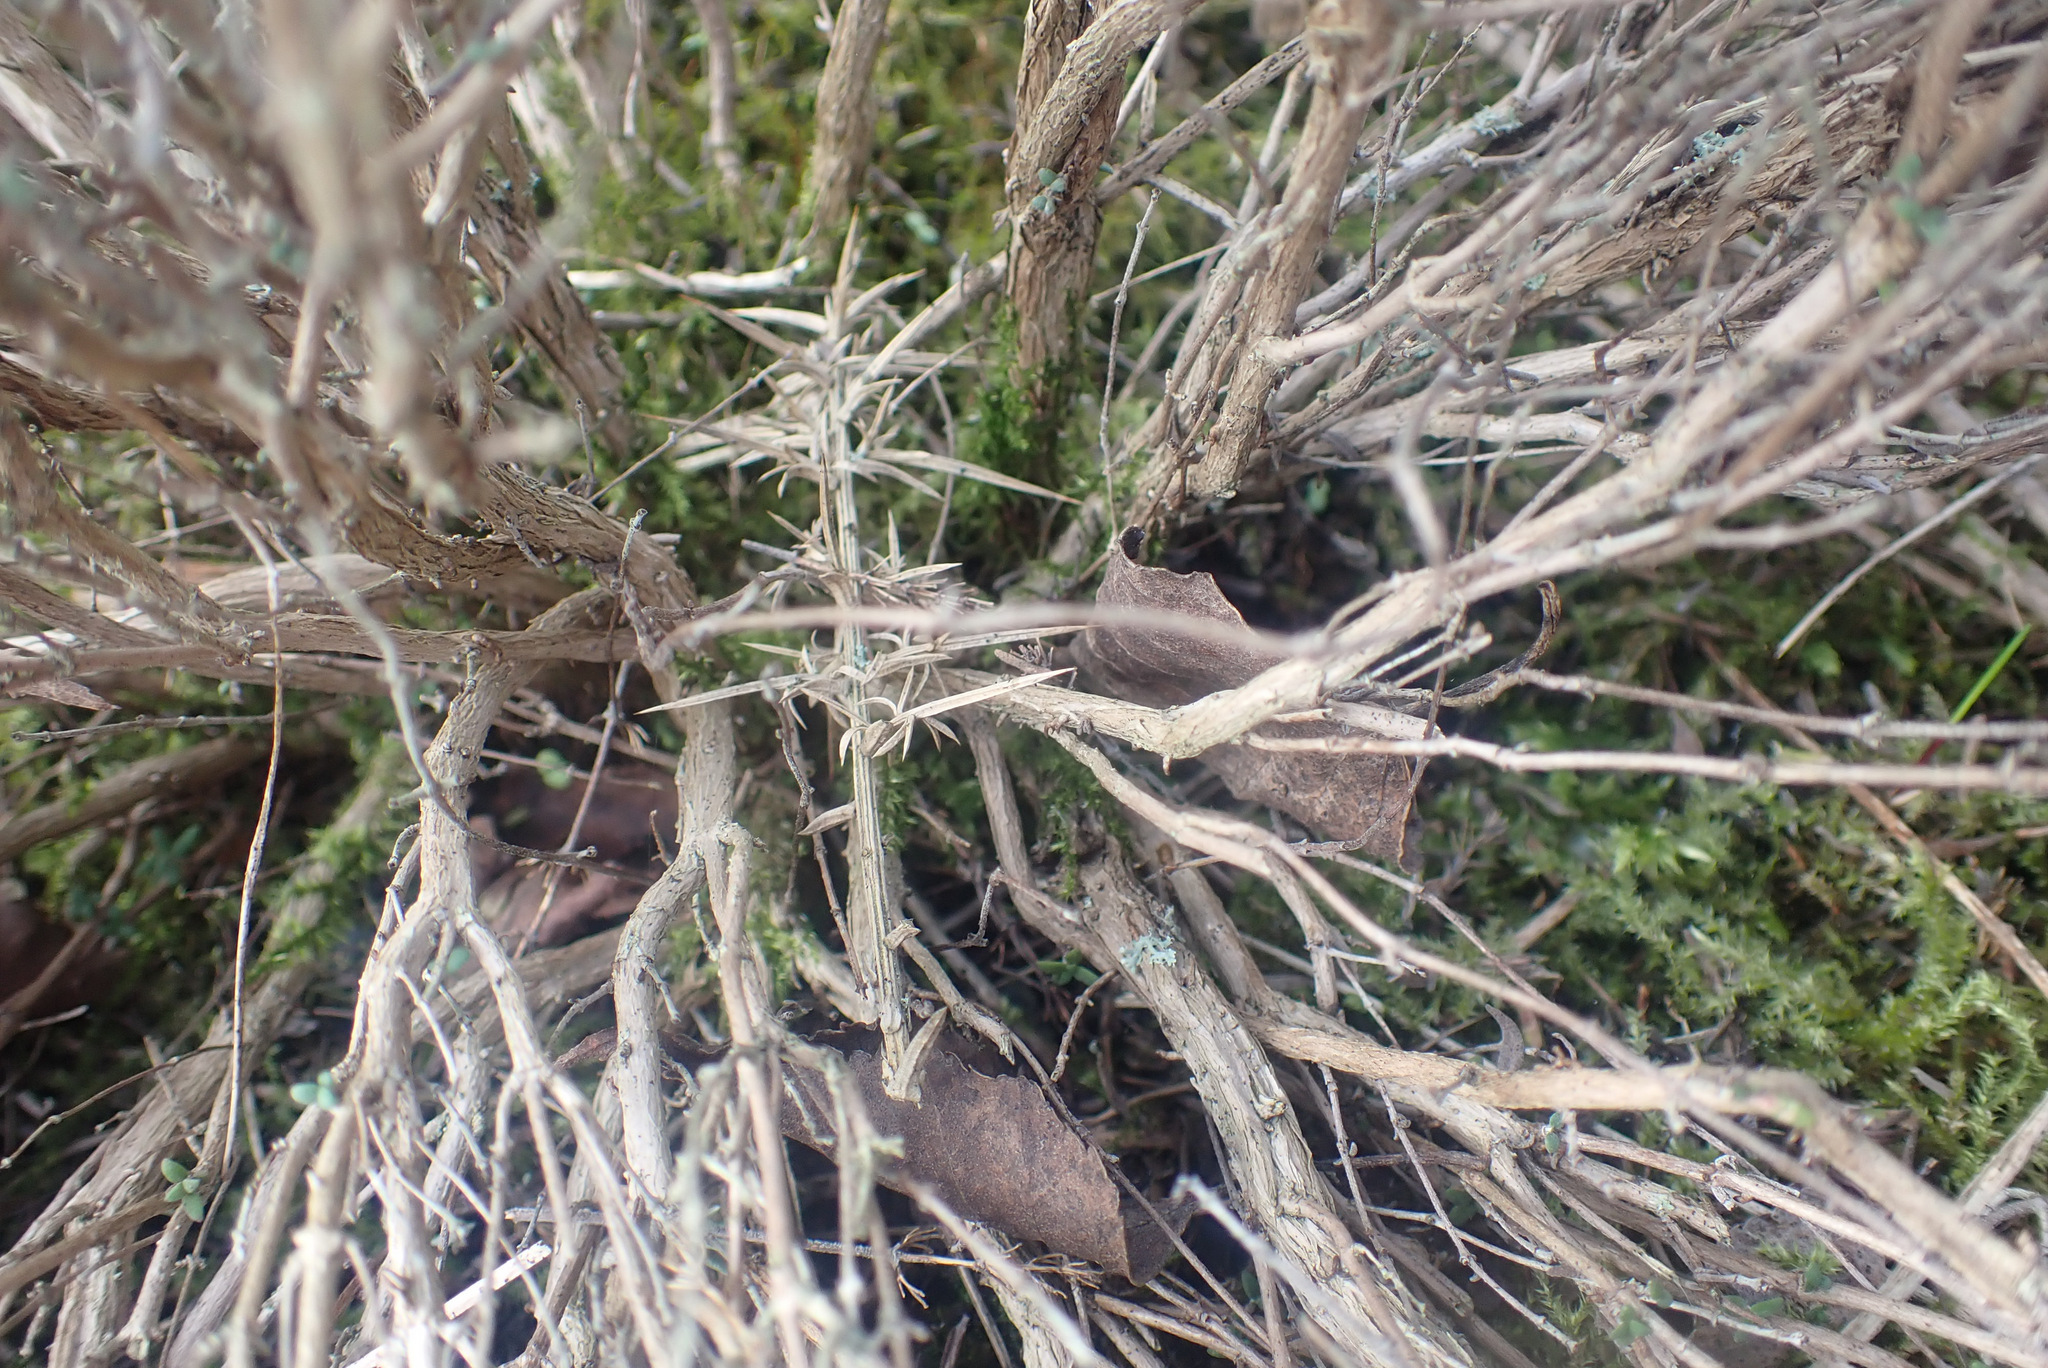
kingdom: Plantae
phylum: Tracheophyta
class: Magnoliopsida
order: Lamiales
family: Lamiaceae
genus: Thymus
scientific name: Thymus vulgaris
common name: Garden thyme
